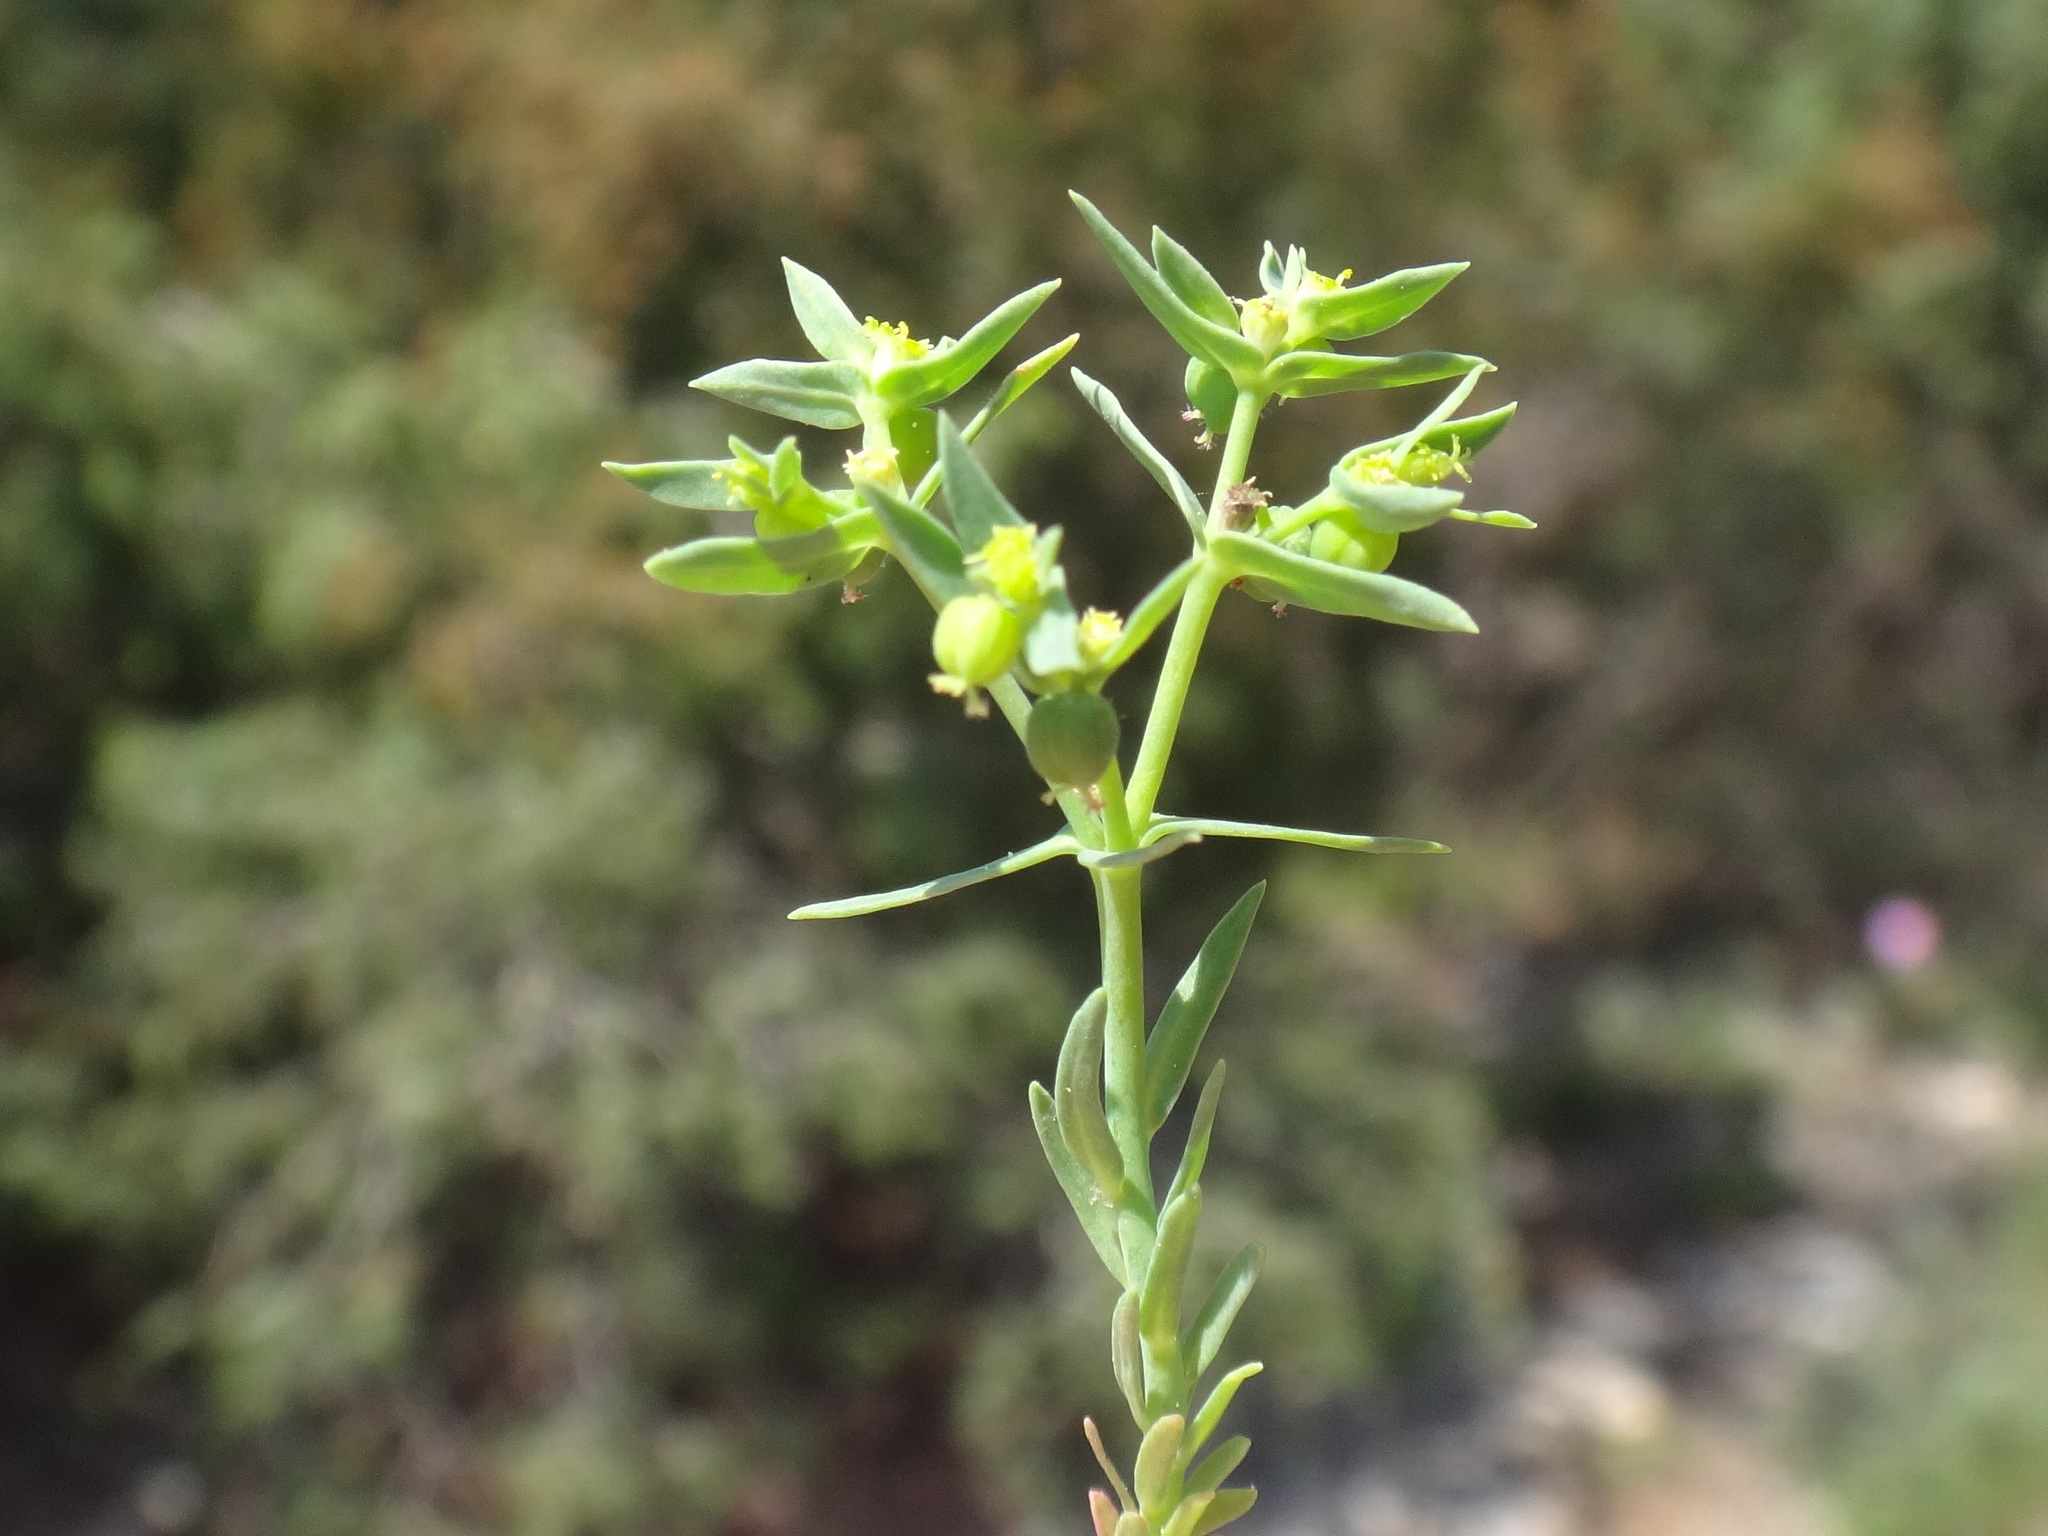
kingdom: Plantae
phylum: Tracheophyta
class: Magnoliopsida
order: Malpighiales
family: Euphorbiaceae
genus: Euphorbia
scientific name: Euphorbia falcata
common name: Sickle spurge
